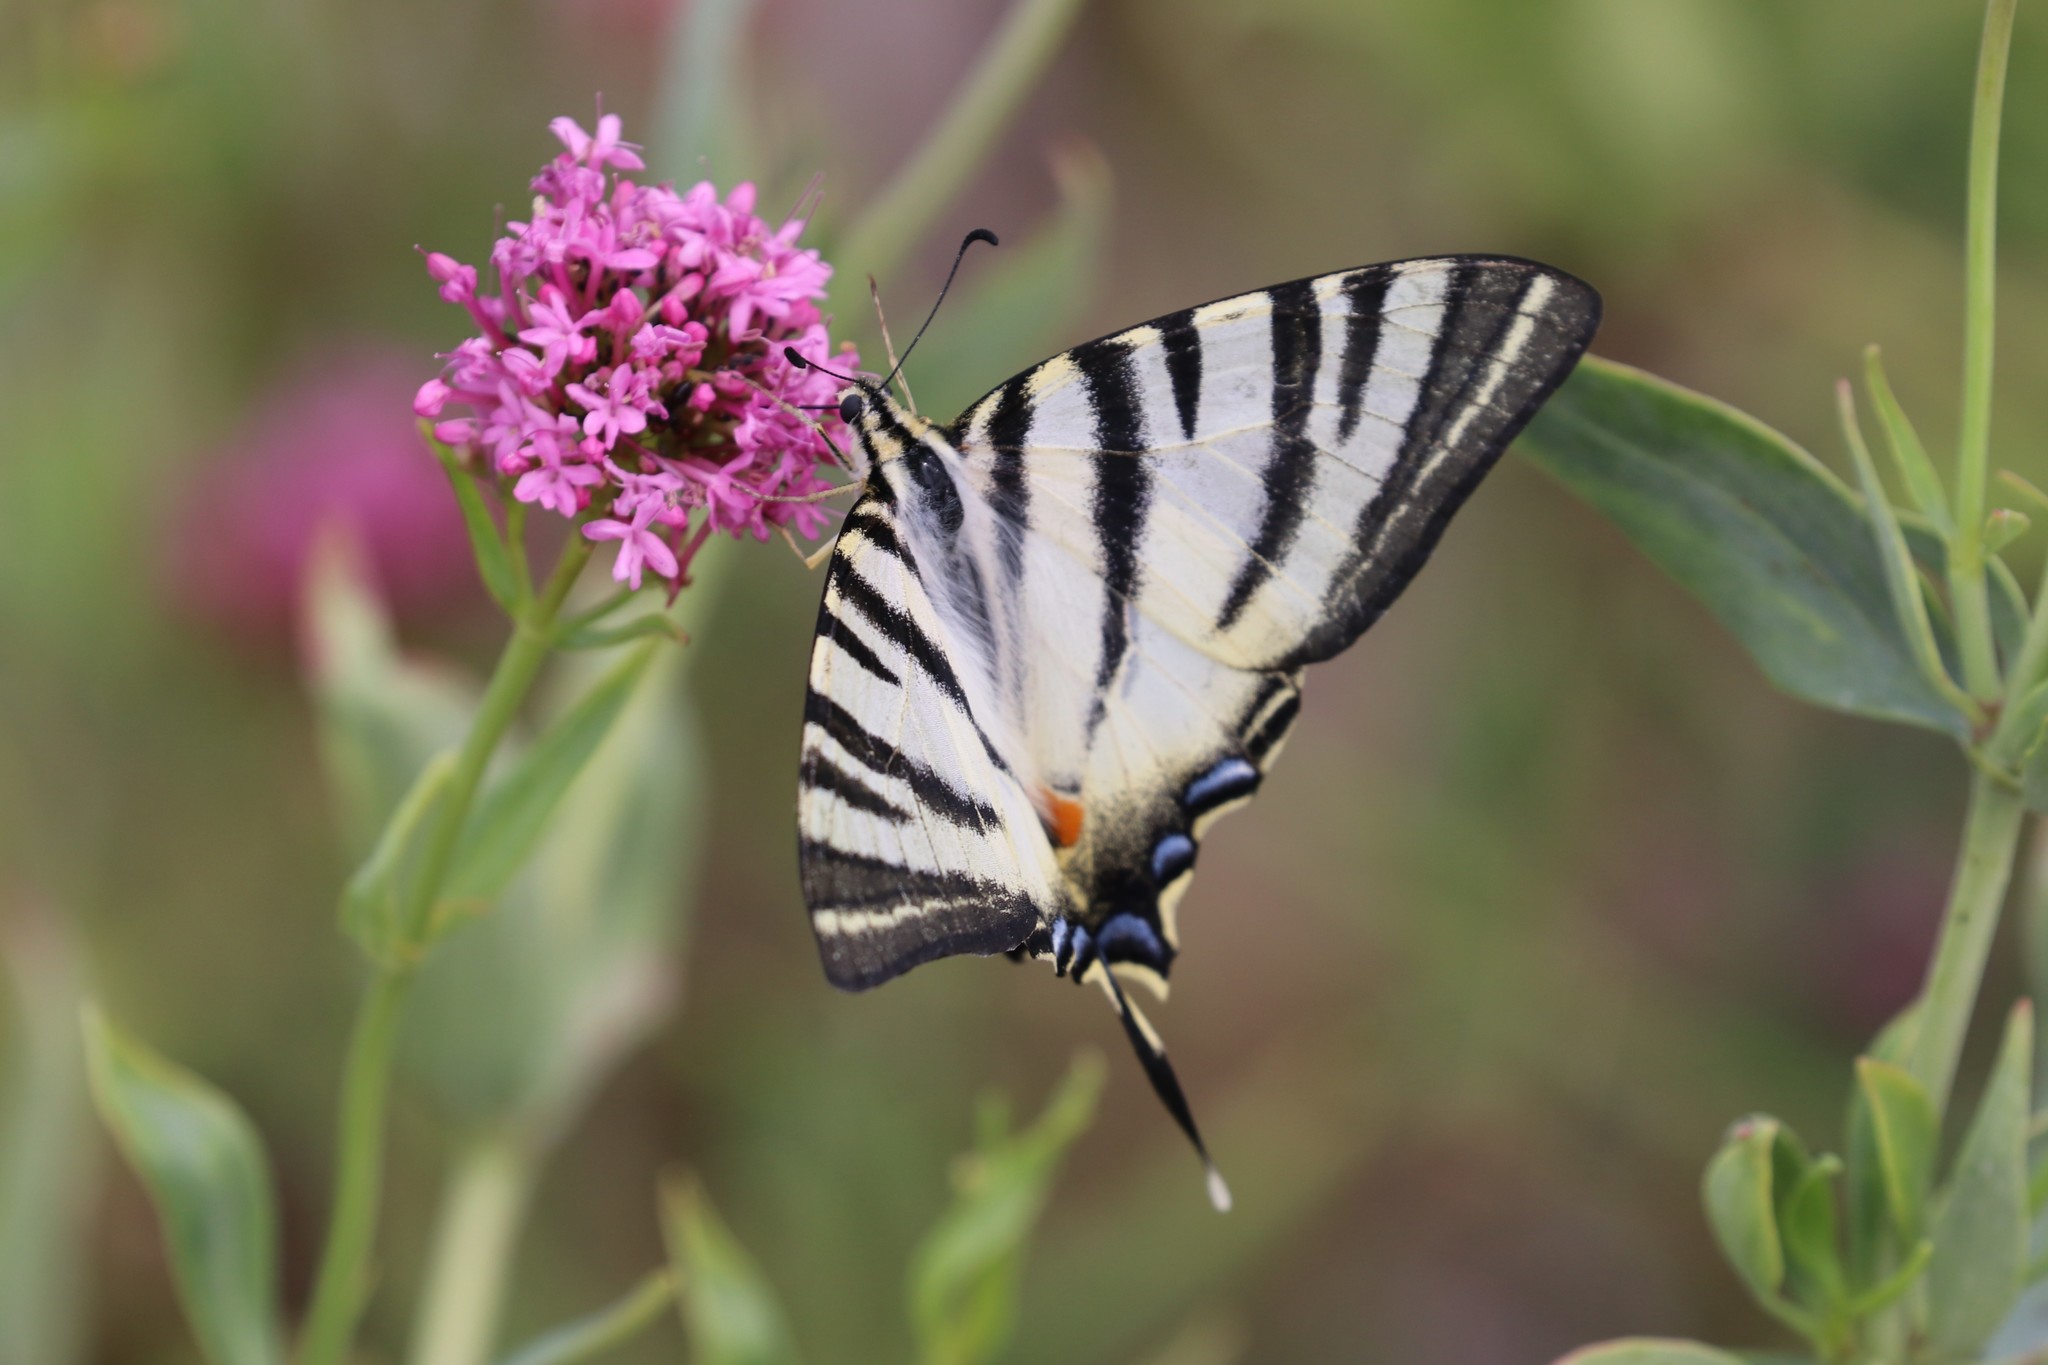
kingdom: Animalia
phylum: Arthropoda
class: Insecta
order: Lepidoptera
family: Papilionidae
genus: Iphiclides
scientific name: Iphiclides podalirius
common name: Scarce swallowtail
